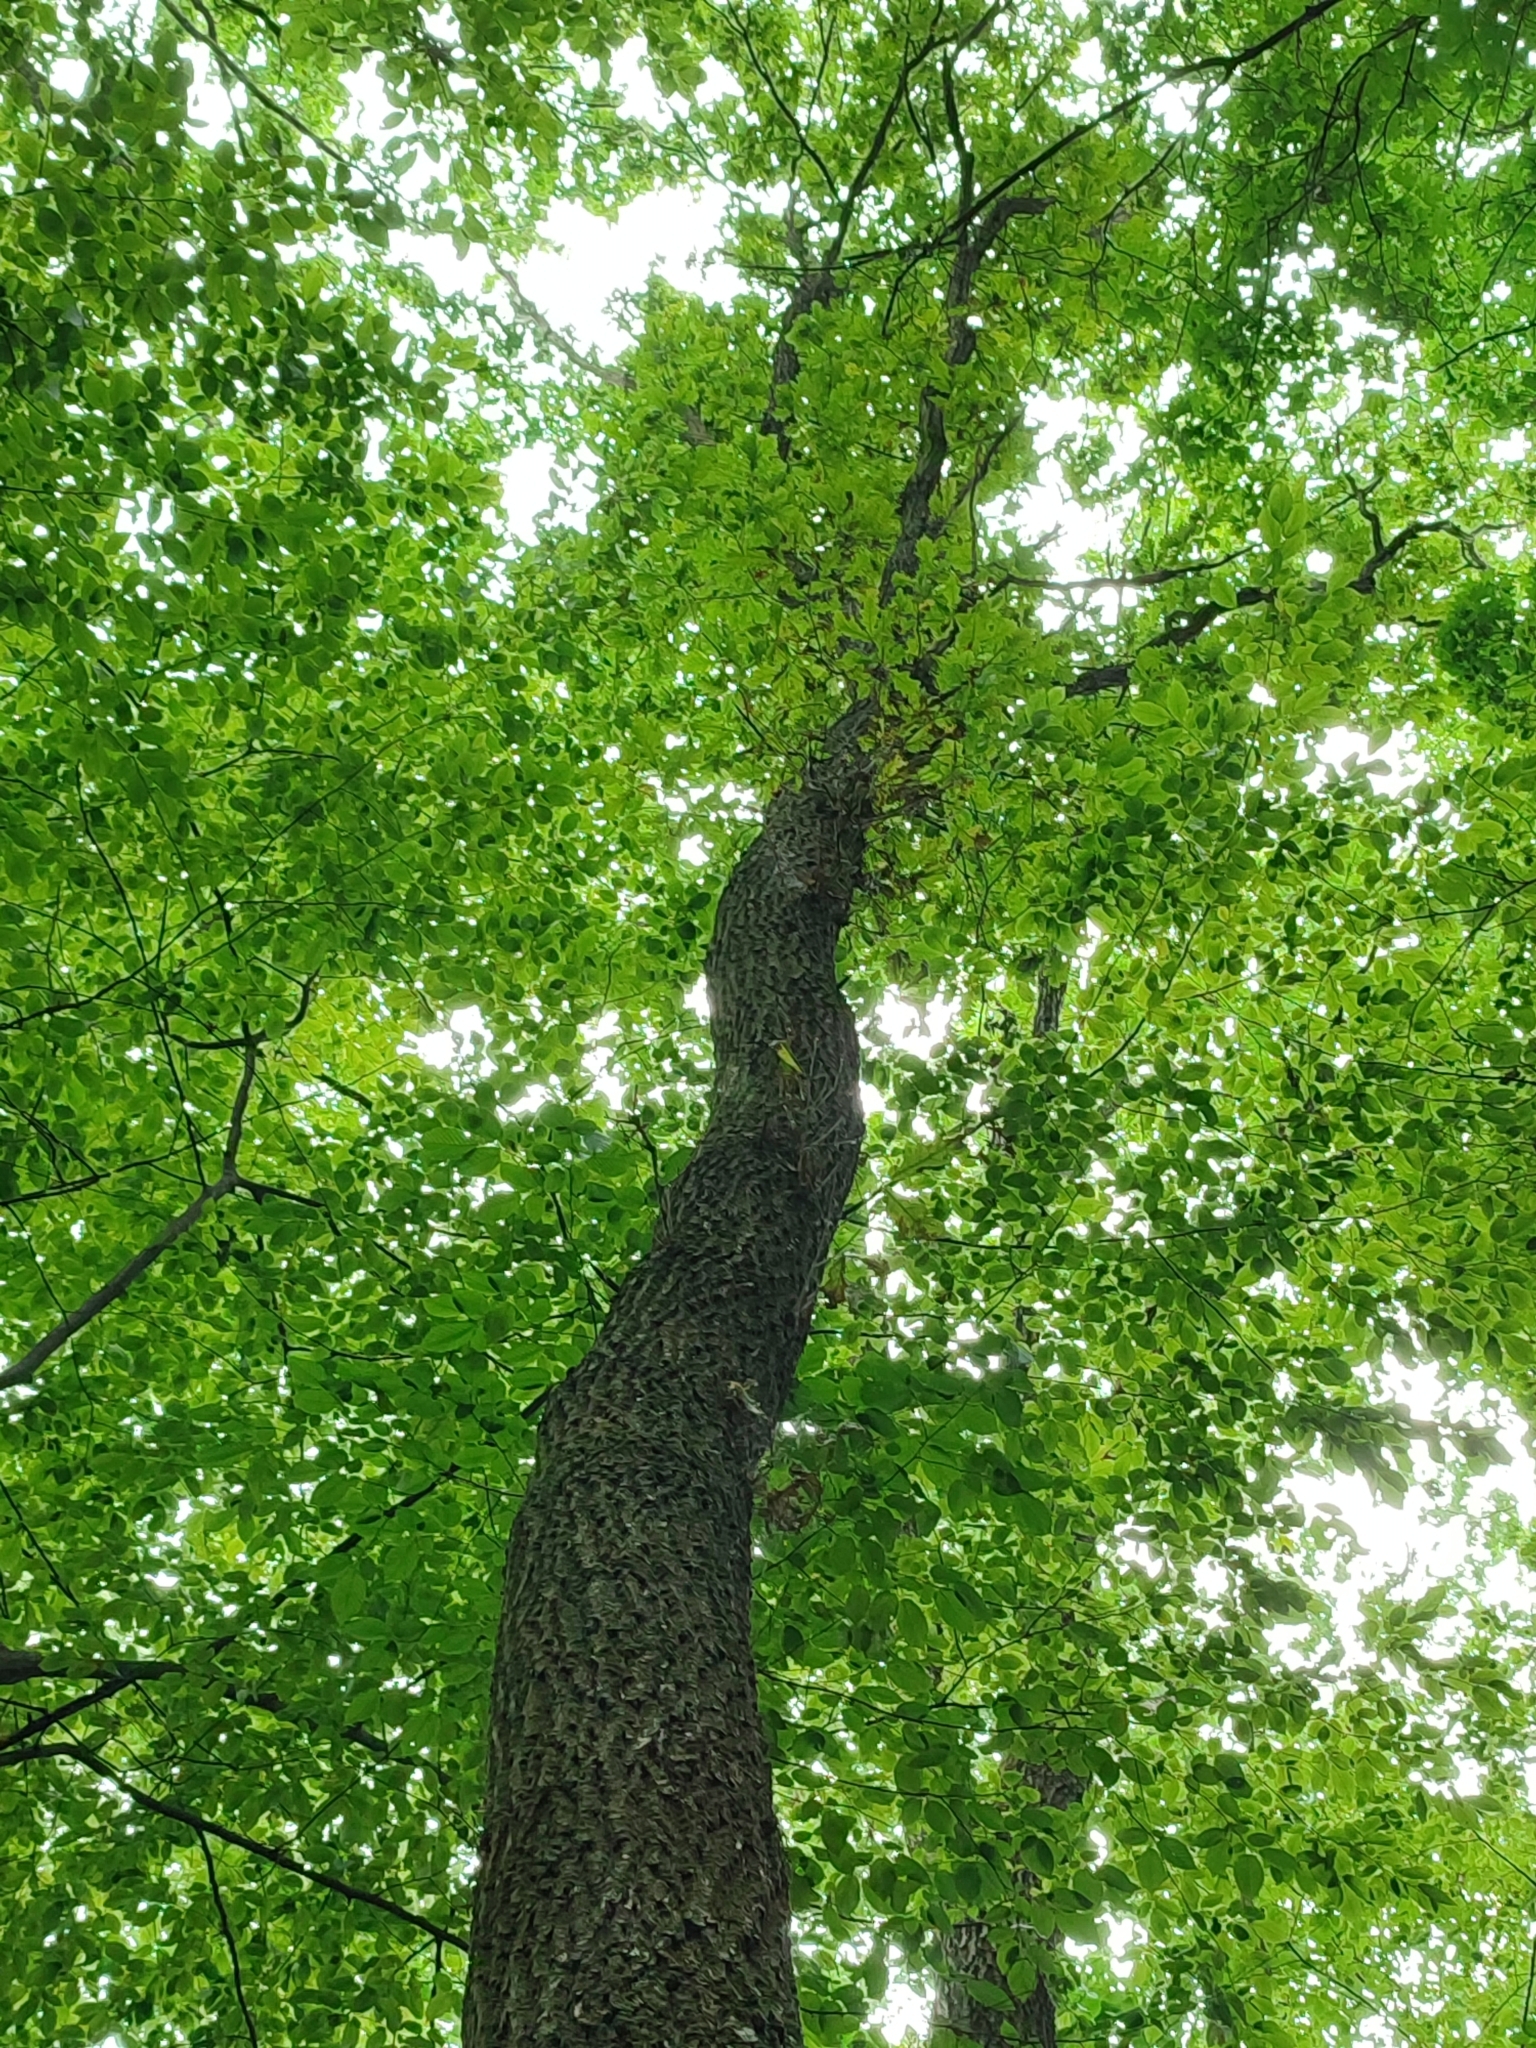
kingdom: Plantae
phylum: Tracheophyta
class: Magnoliopsida
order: Fagales
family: Fagaceae
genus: Quercus
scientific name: Quercus robur
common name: Pedunculate oak
